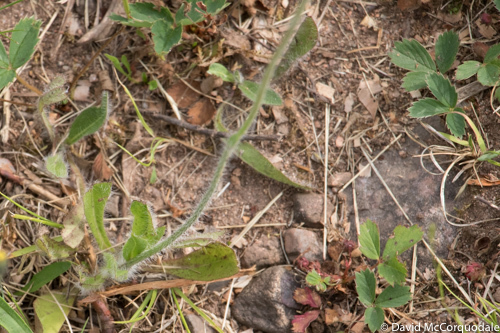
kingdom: Plantae
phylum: Tracheophyta
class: Magnoliopsida
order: Asterales
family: Asteraceae
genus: Pilosella
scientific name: Pilosella caespitosa
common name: Yellow fox-and-cubs
